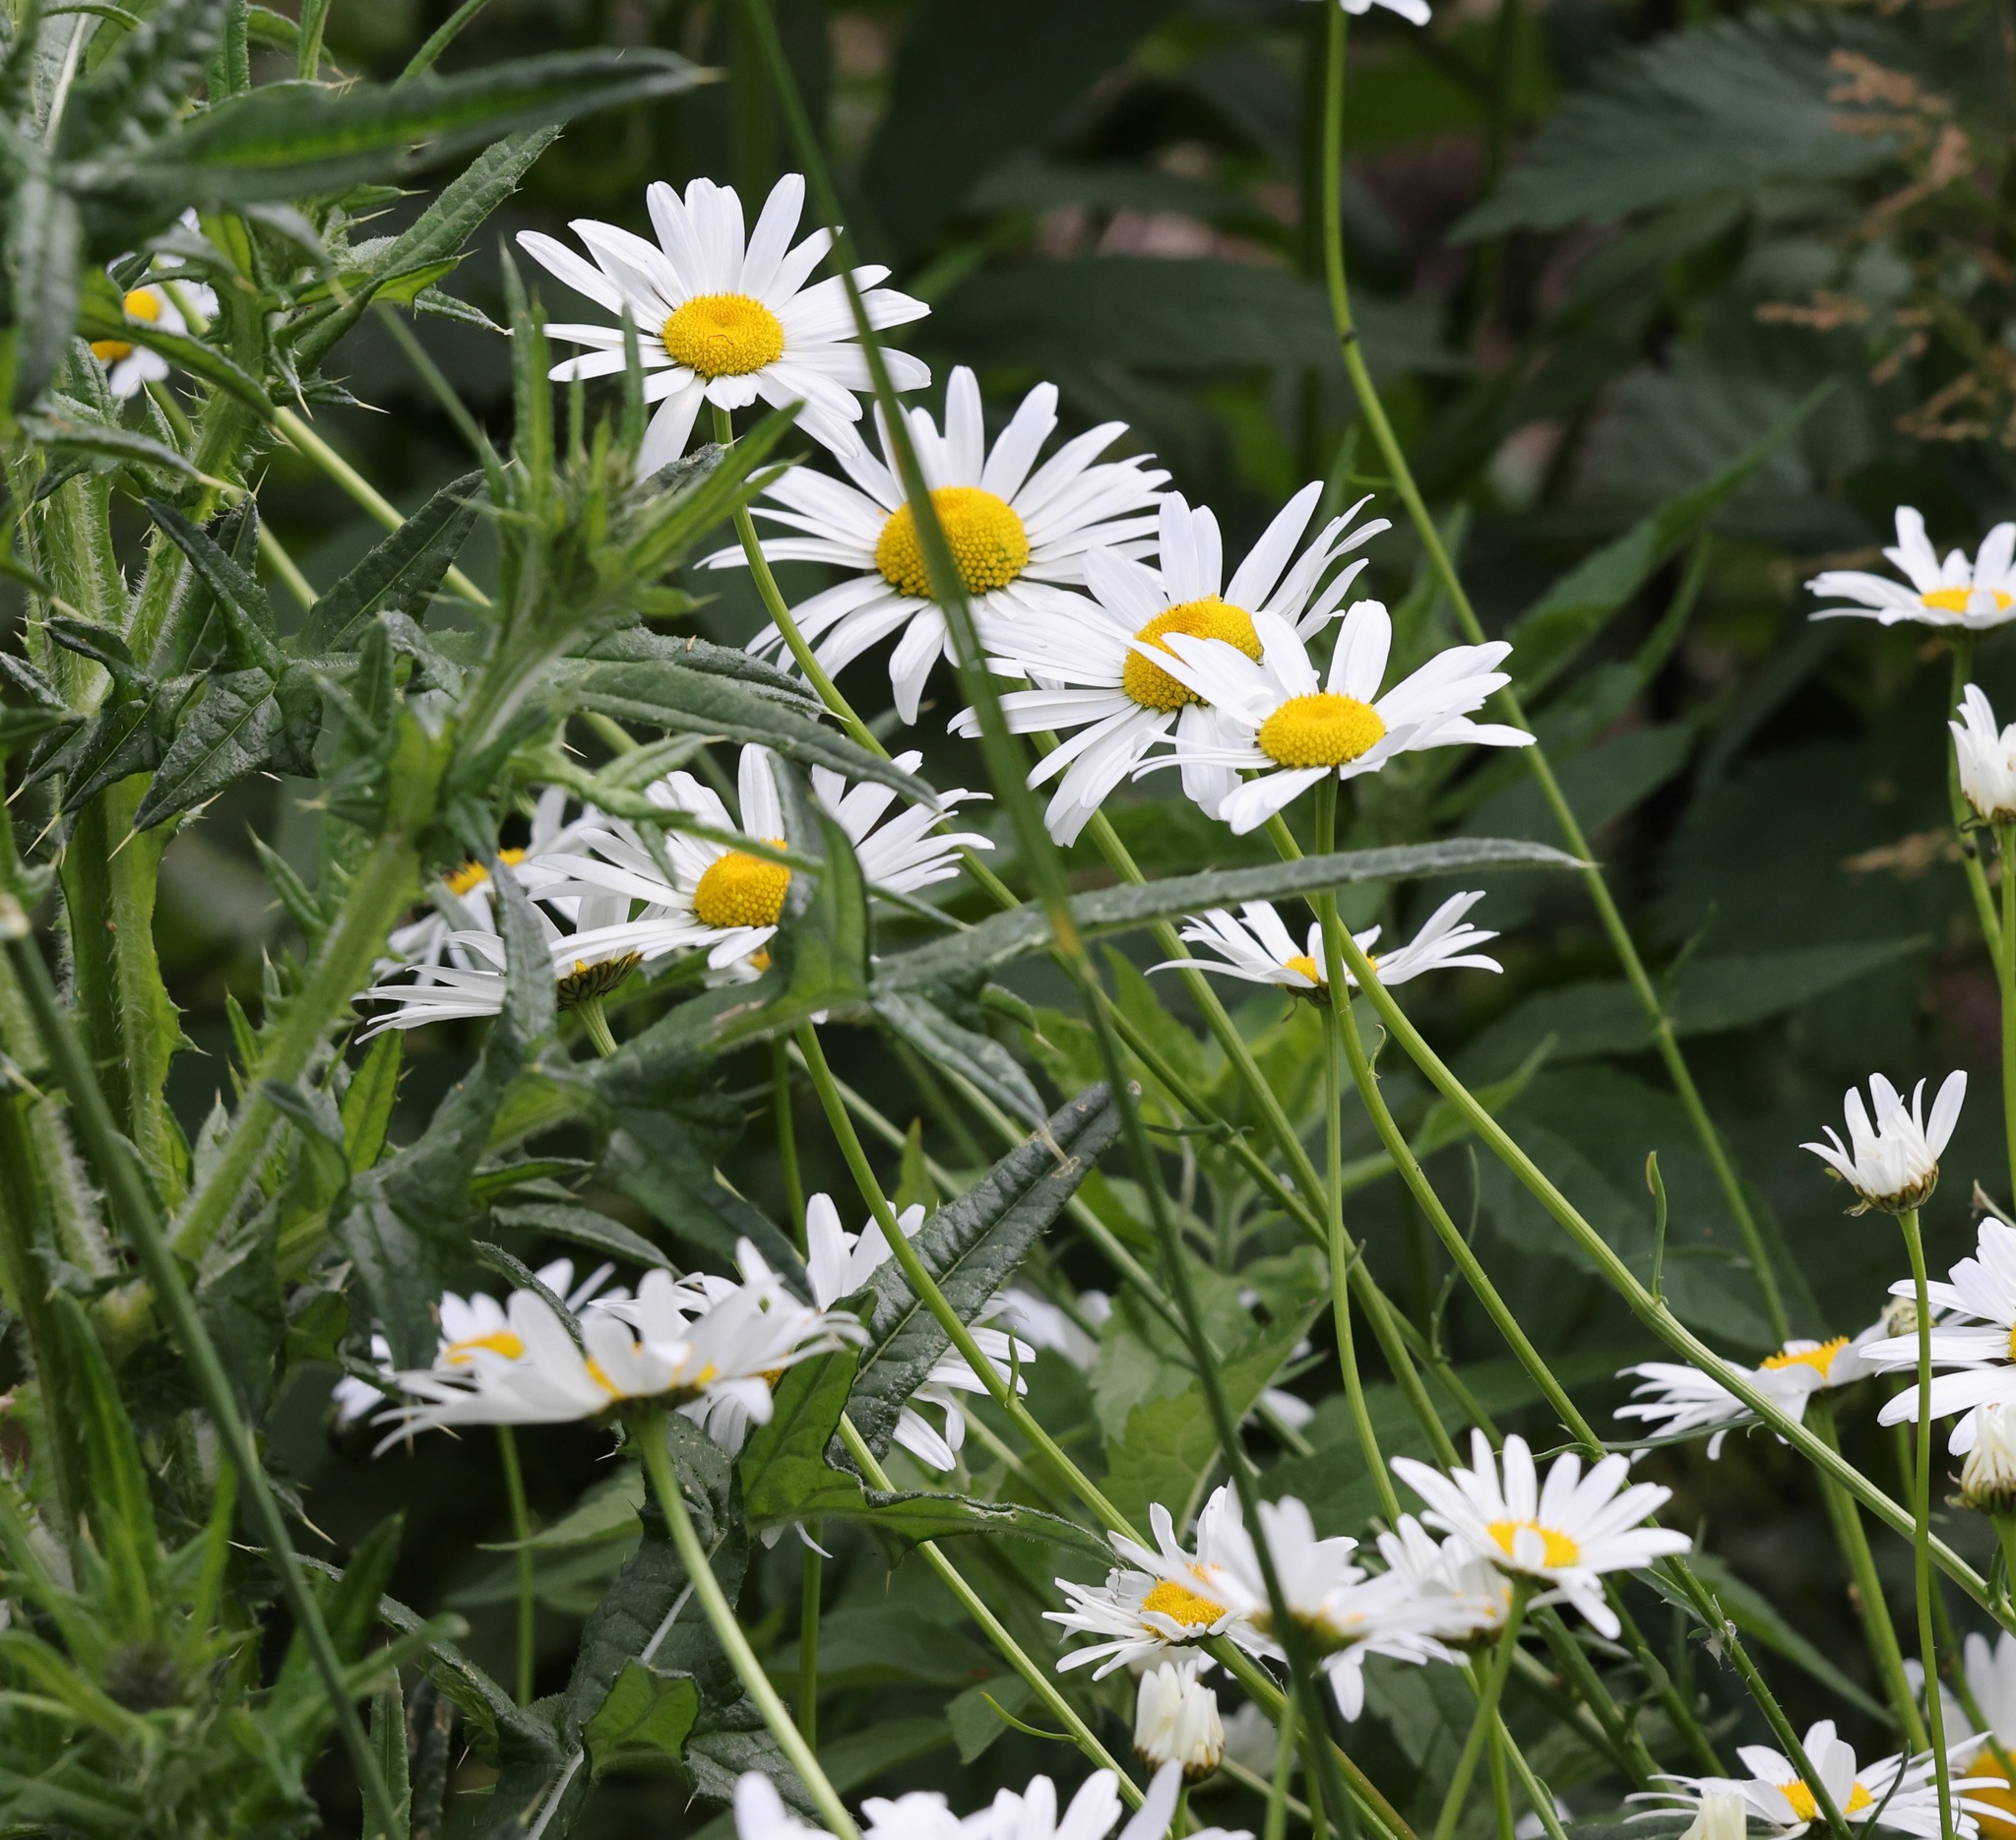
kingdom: Plantae
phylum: Tracheophyta
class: Magnoliopsida
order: Asterales
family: Asteraceae
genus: Leucanthemum
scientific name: Leucanthemum vulgare
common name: Oxeye daisy
